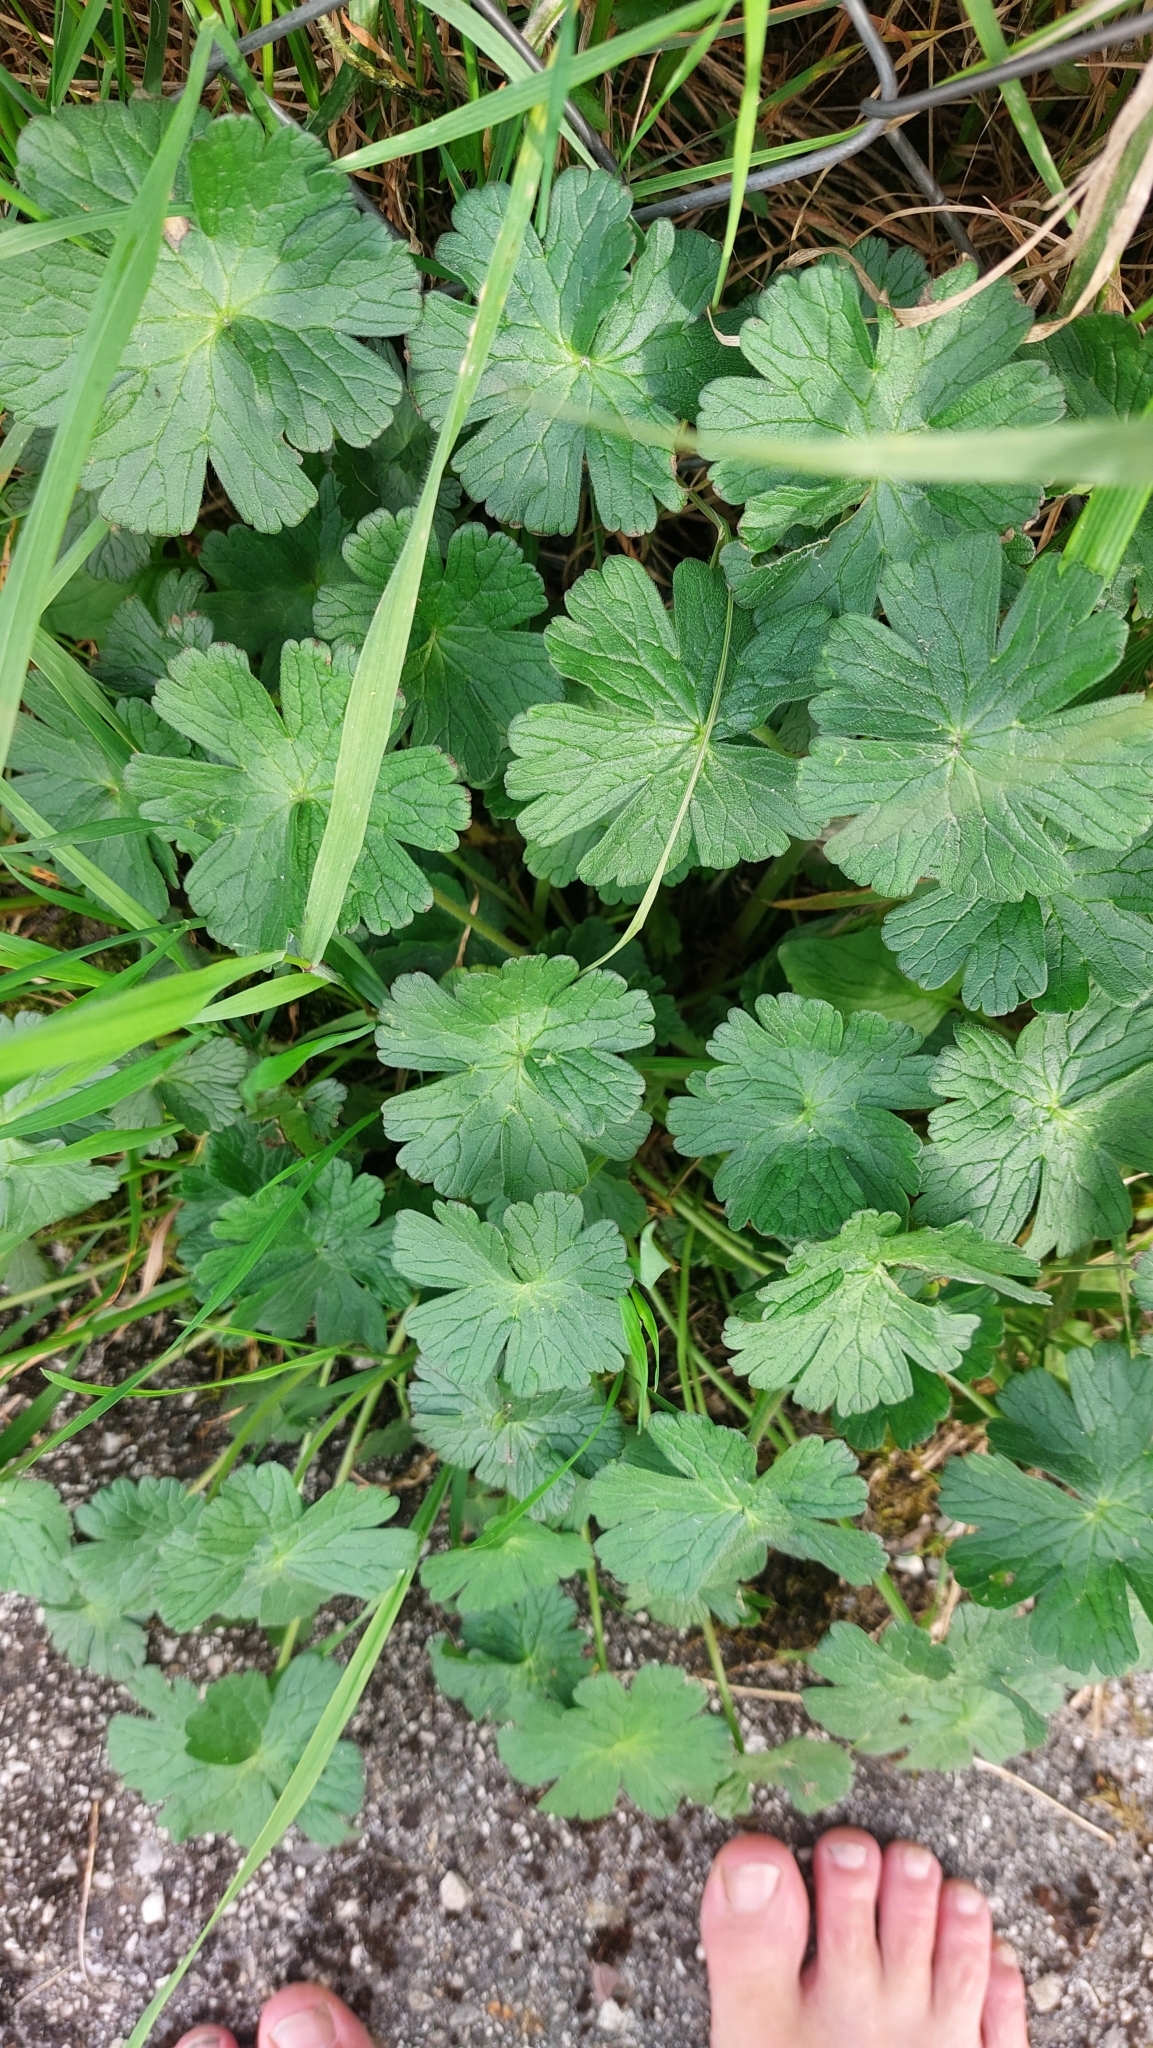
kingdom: Plantae
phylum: Tracheophyta
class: Magnoliopsida
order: Geraniales
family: Geraniaceae
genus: Geranium
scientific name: Geranium pyrenaicum
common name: Hedgerow crane's-bill
